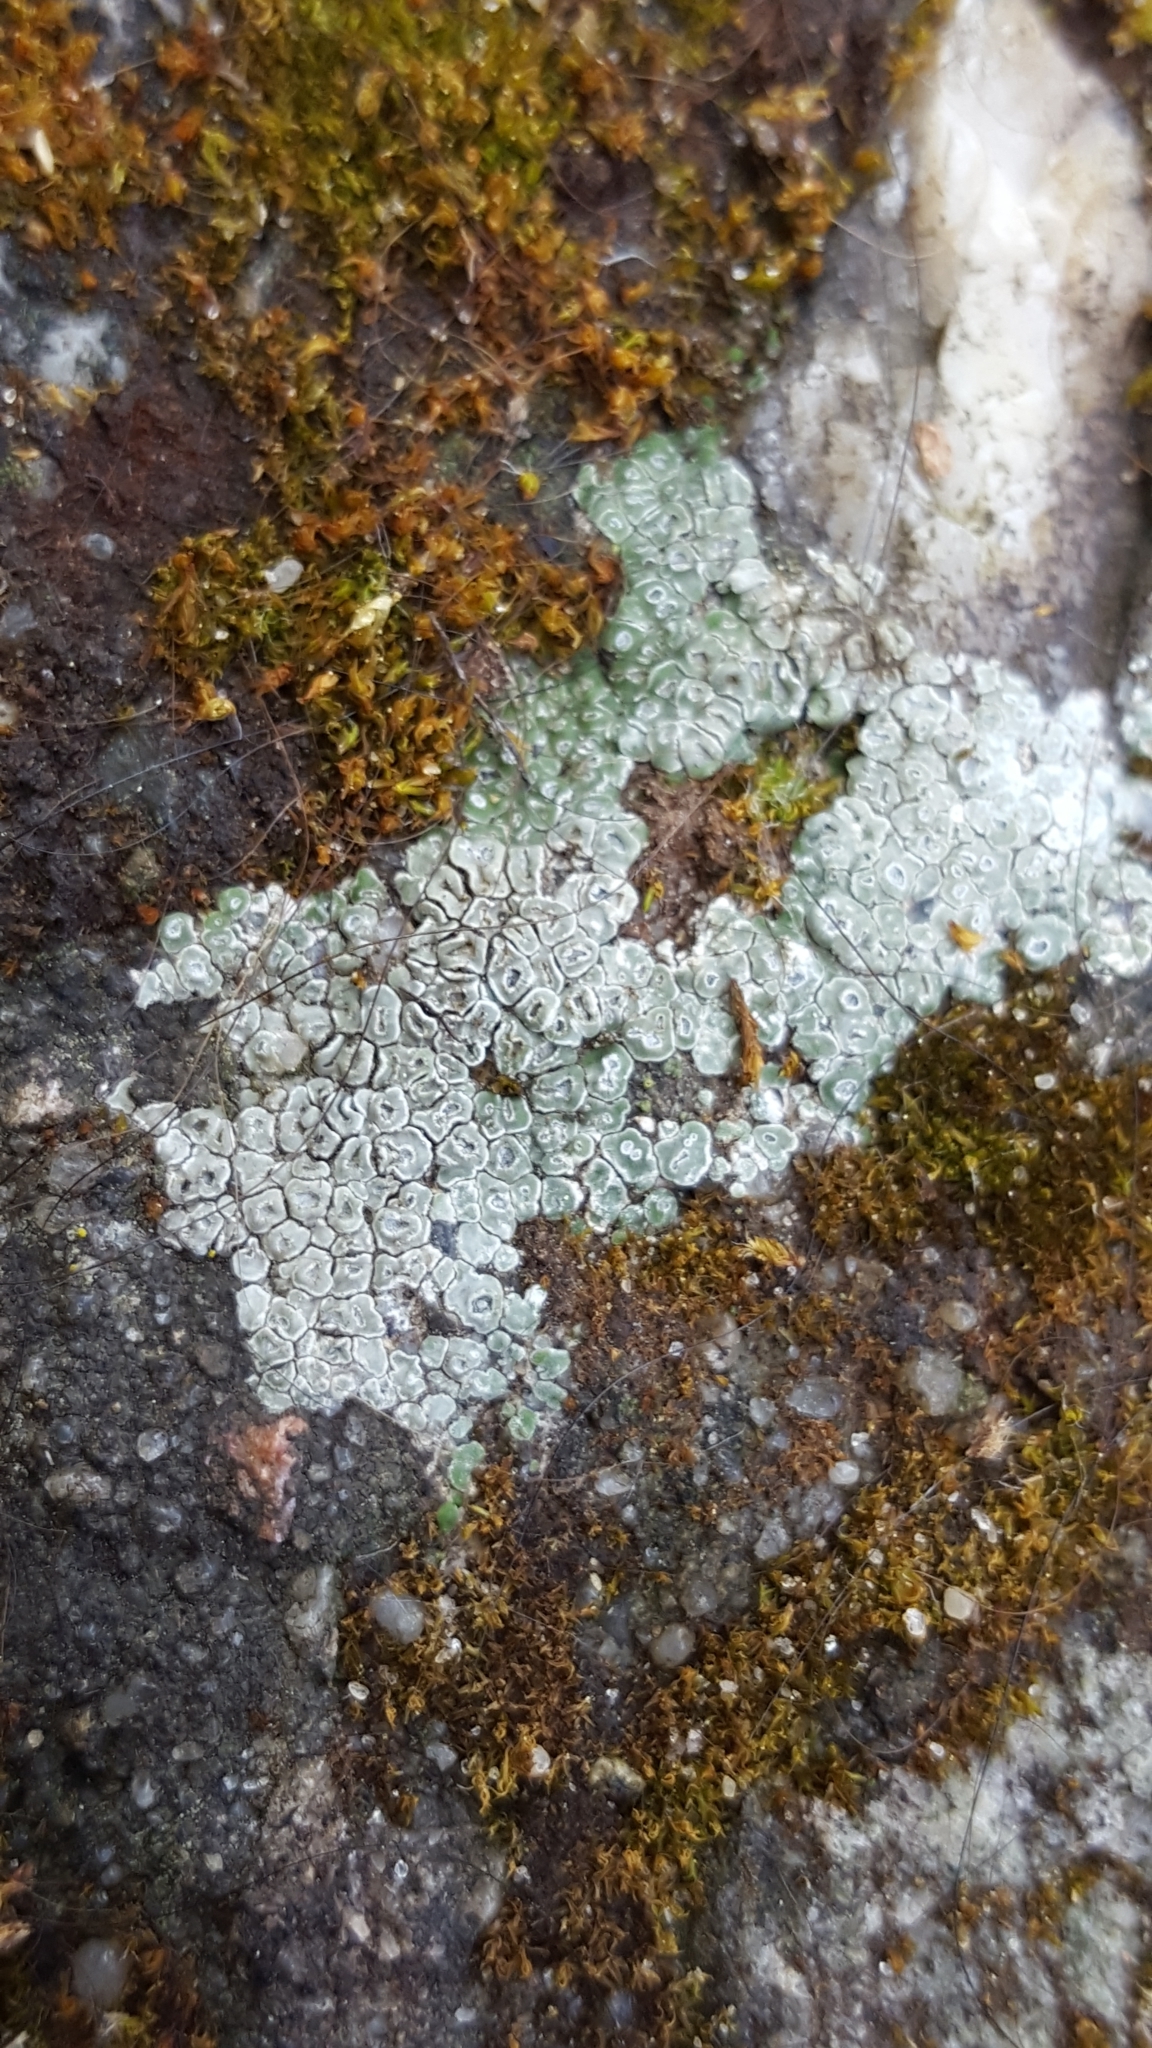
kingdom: Fungi
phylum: Ascomycota
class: Lecanoromycetes
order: Pertusariales
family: Megasporaceae
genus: Circinaria
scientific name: Circinaria contorta
